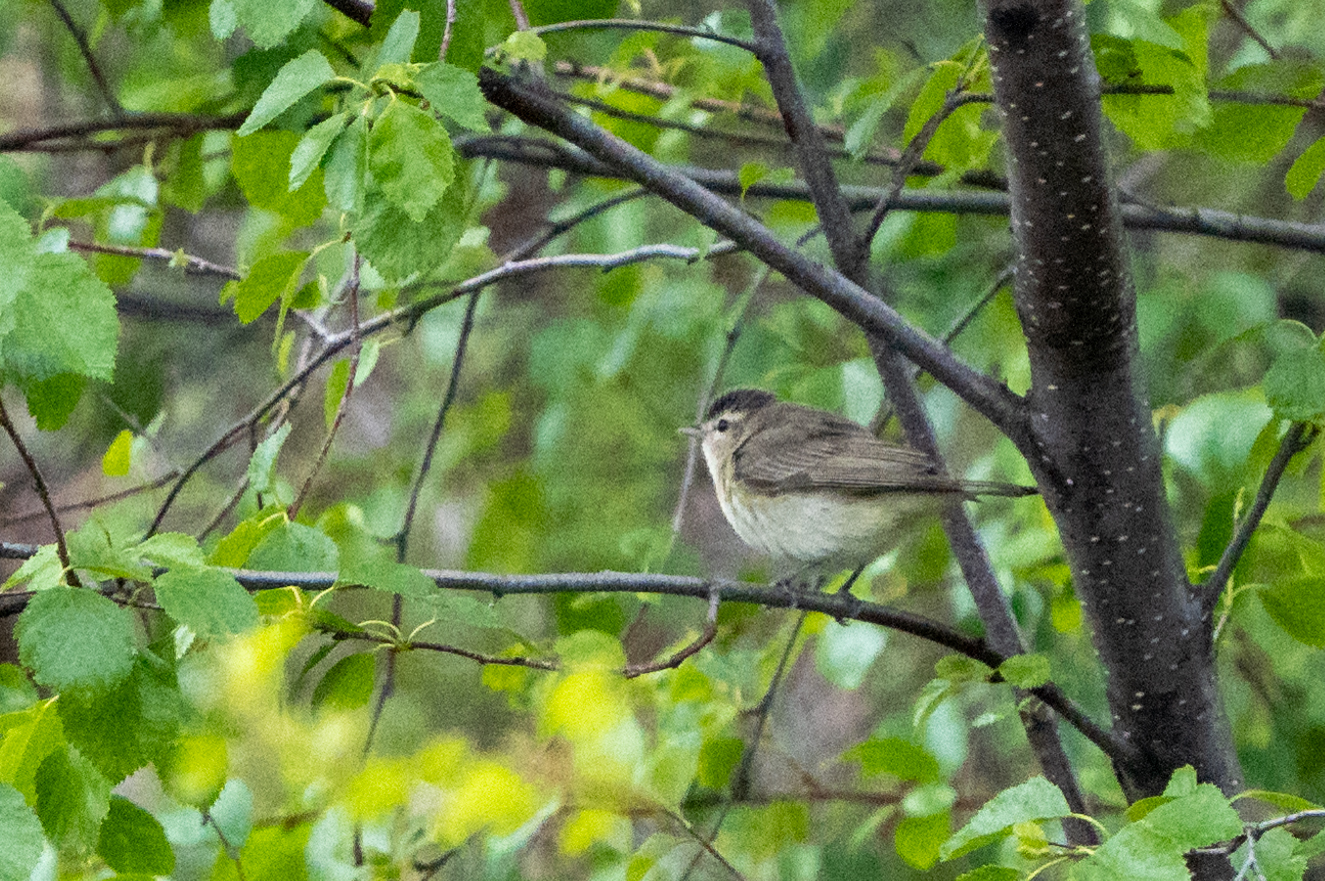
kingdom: Animalia
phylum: Chordata
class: Aves
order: Passeriformes
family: Vireonidae
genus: Vireo
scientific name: Vireo gilvus
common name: Warbling vireo
